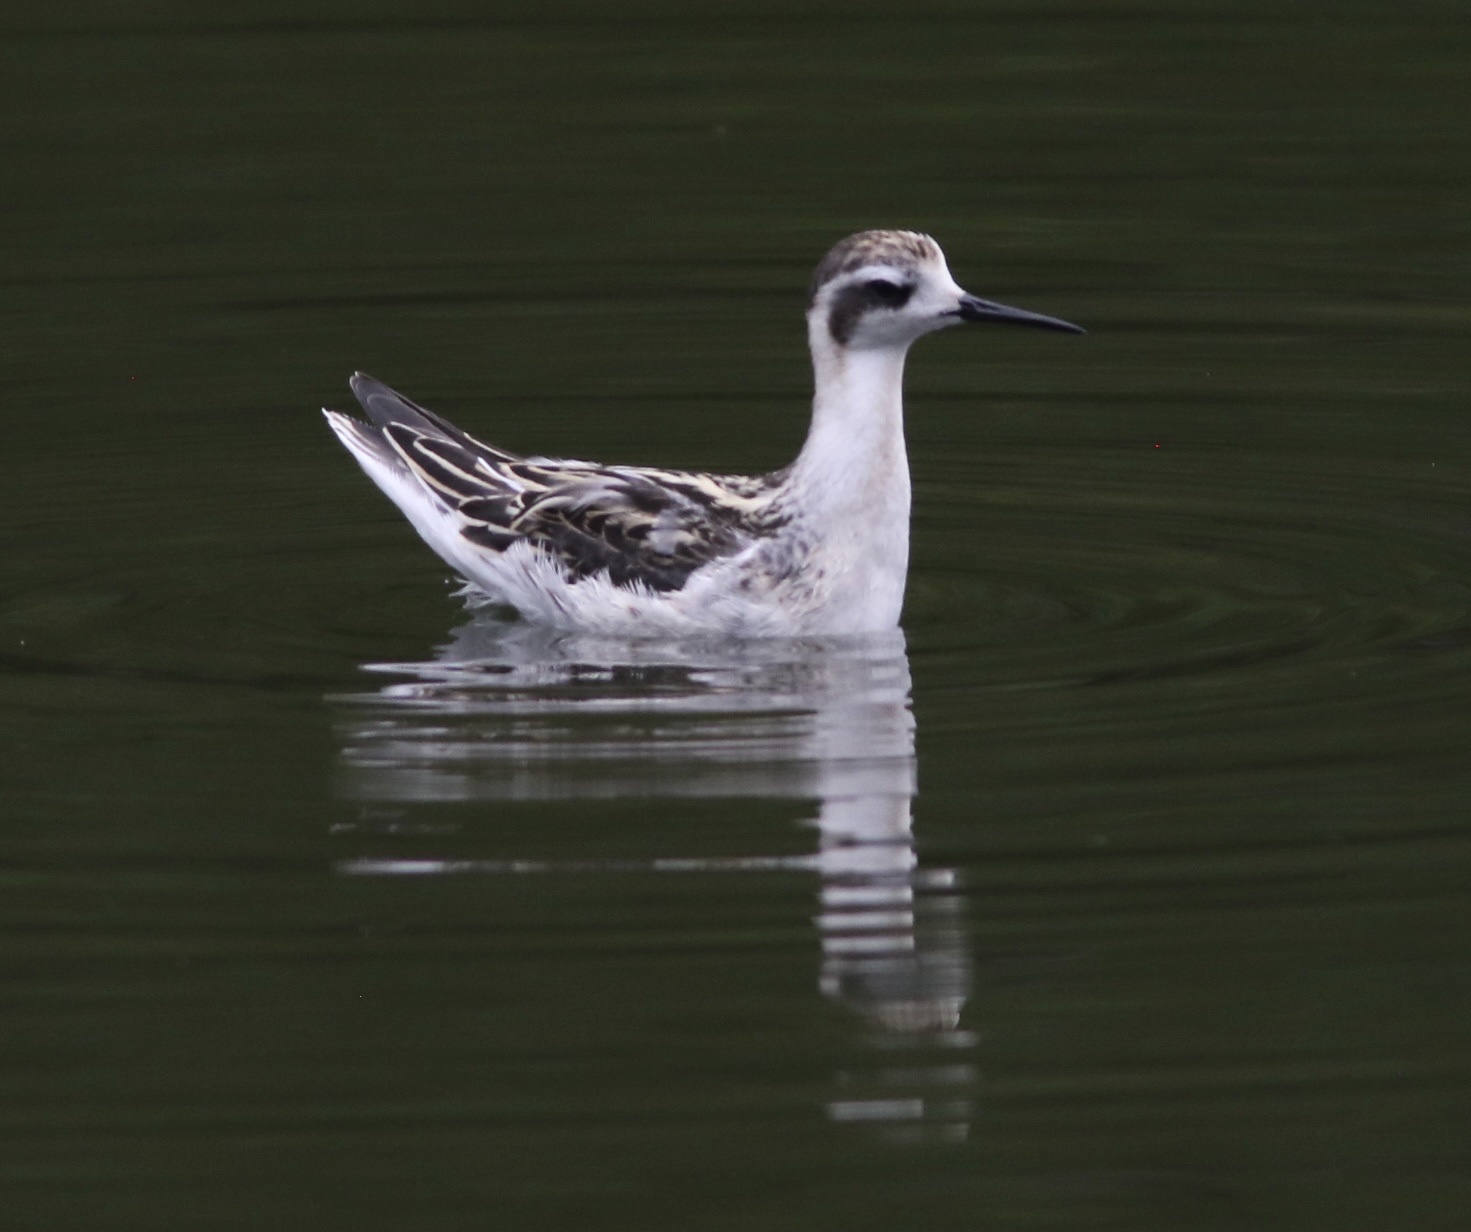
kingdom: Animalia
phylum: Chordata
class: Aves
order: Charadriiformes
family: Scolopacidae
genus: Phalaropus
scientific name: Phalaropus lobatus
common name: Red-necked phalarope
